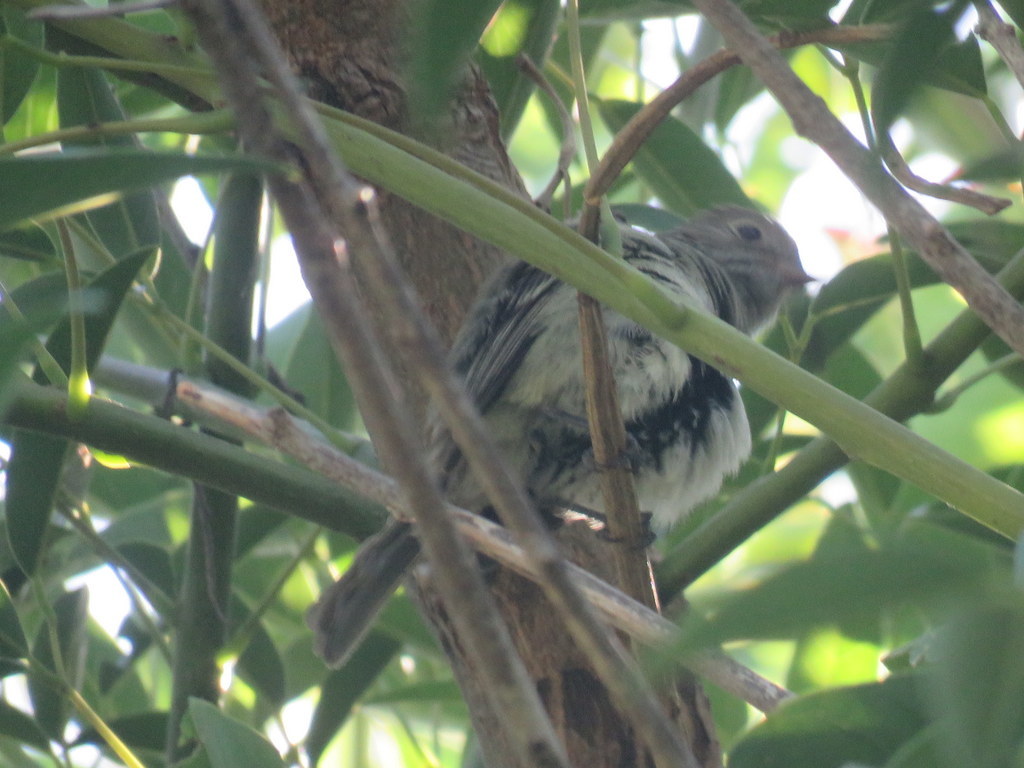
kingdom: Animalia
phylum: Chordata
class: Aves
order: Passeriformes
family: Tyrannidae
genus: Elaenia
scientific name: Elaenia parvirostris
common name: Small-billed elaenia
